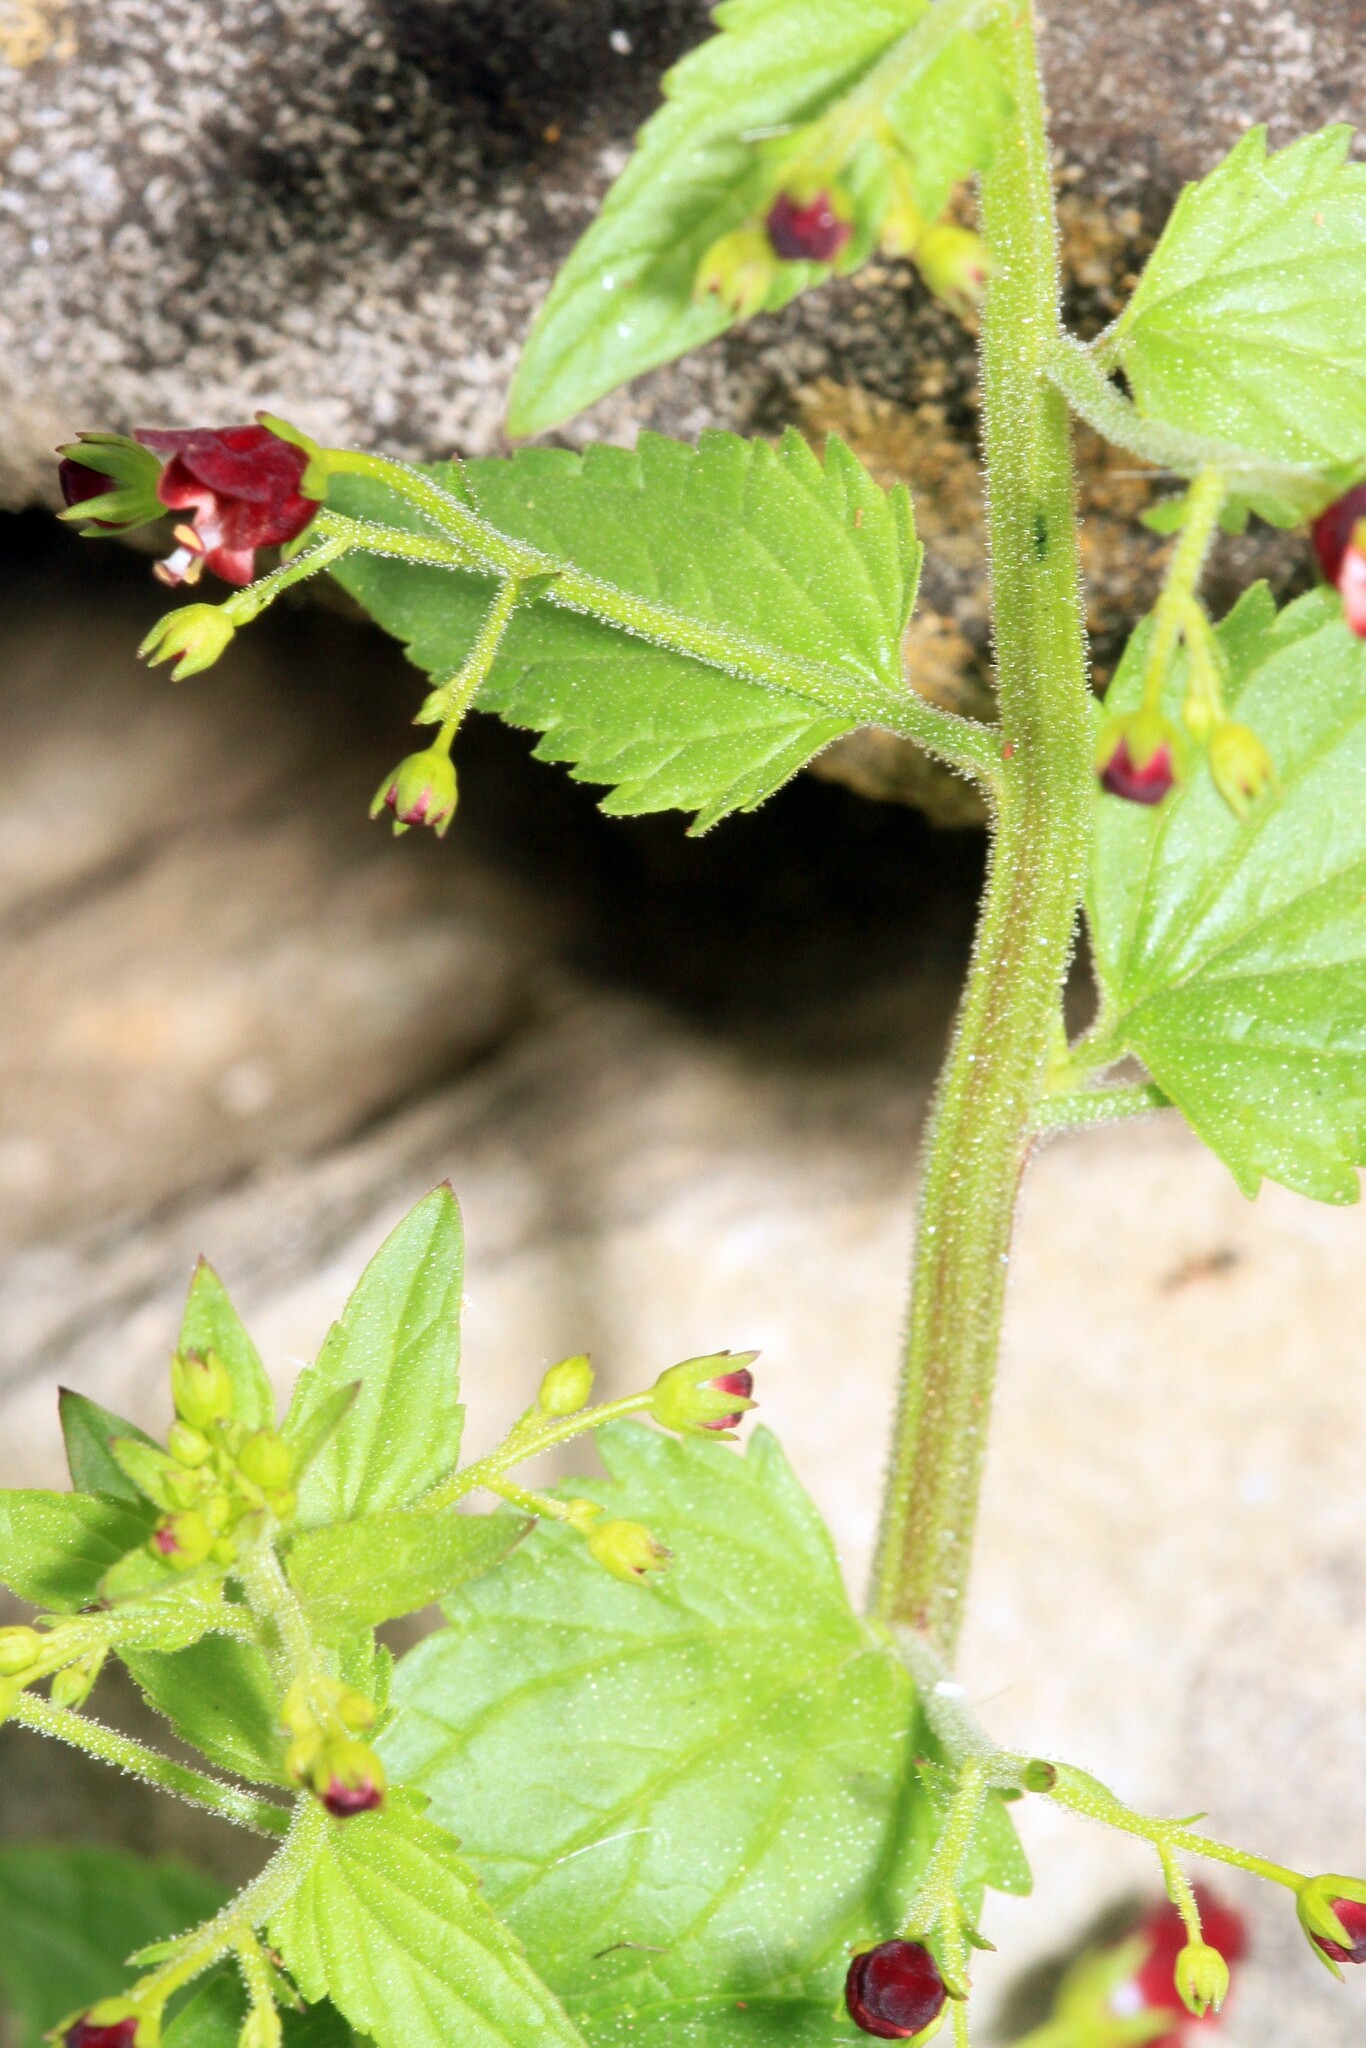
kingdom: Plantae
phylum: Tracheophyta
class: Magnoliopsida
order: Lamiales
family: Scrophulariaceae
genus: Scrophularia
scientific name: Scrophularia peregrina
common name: Mediterranean figwort
